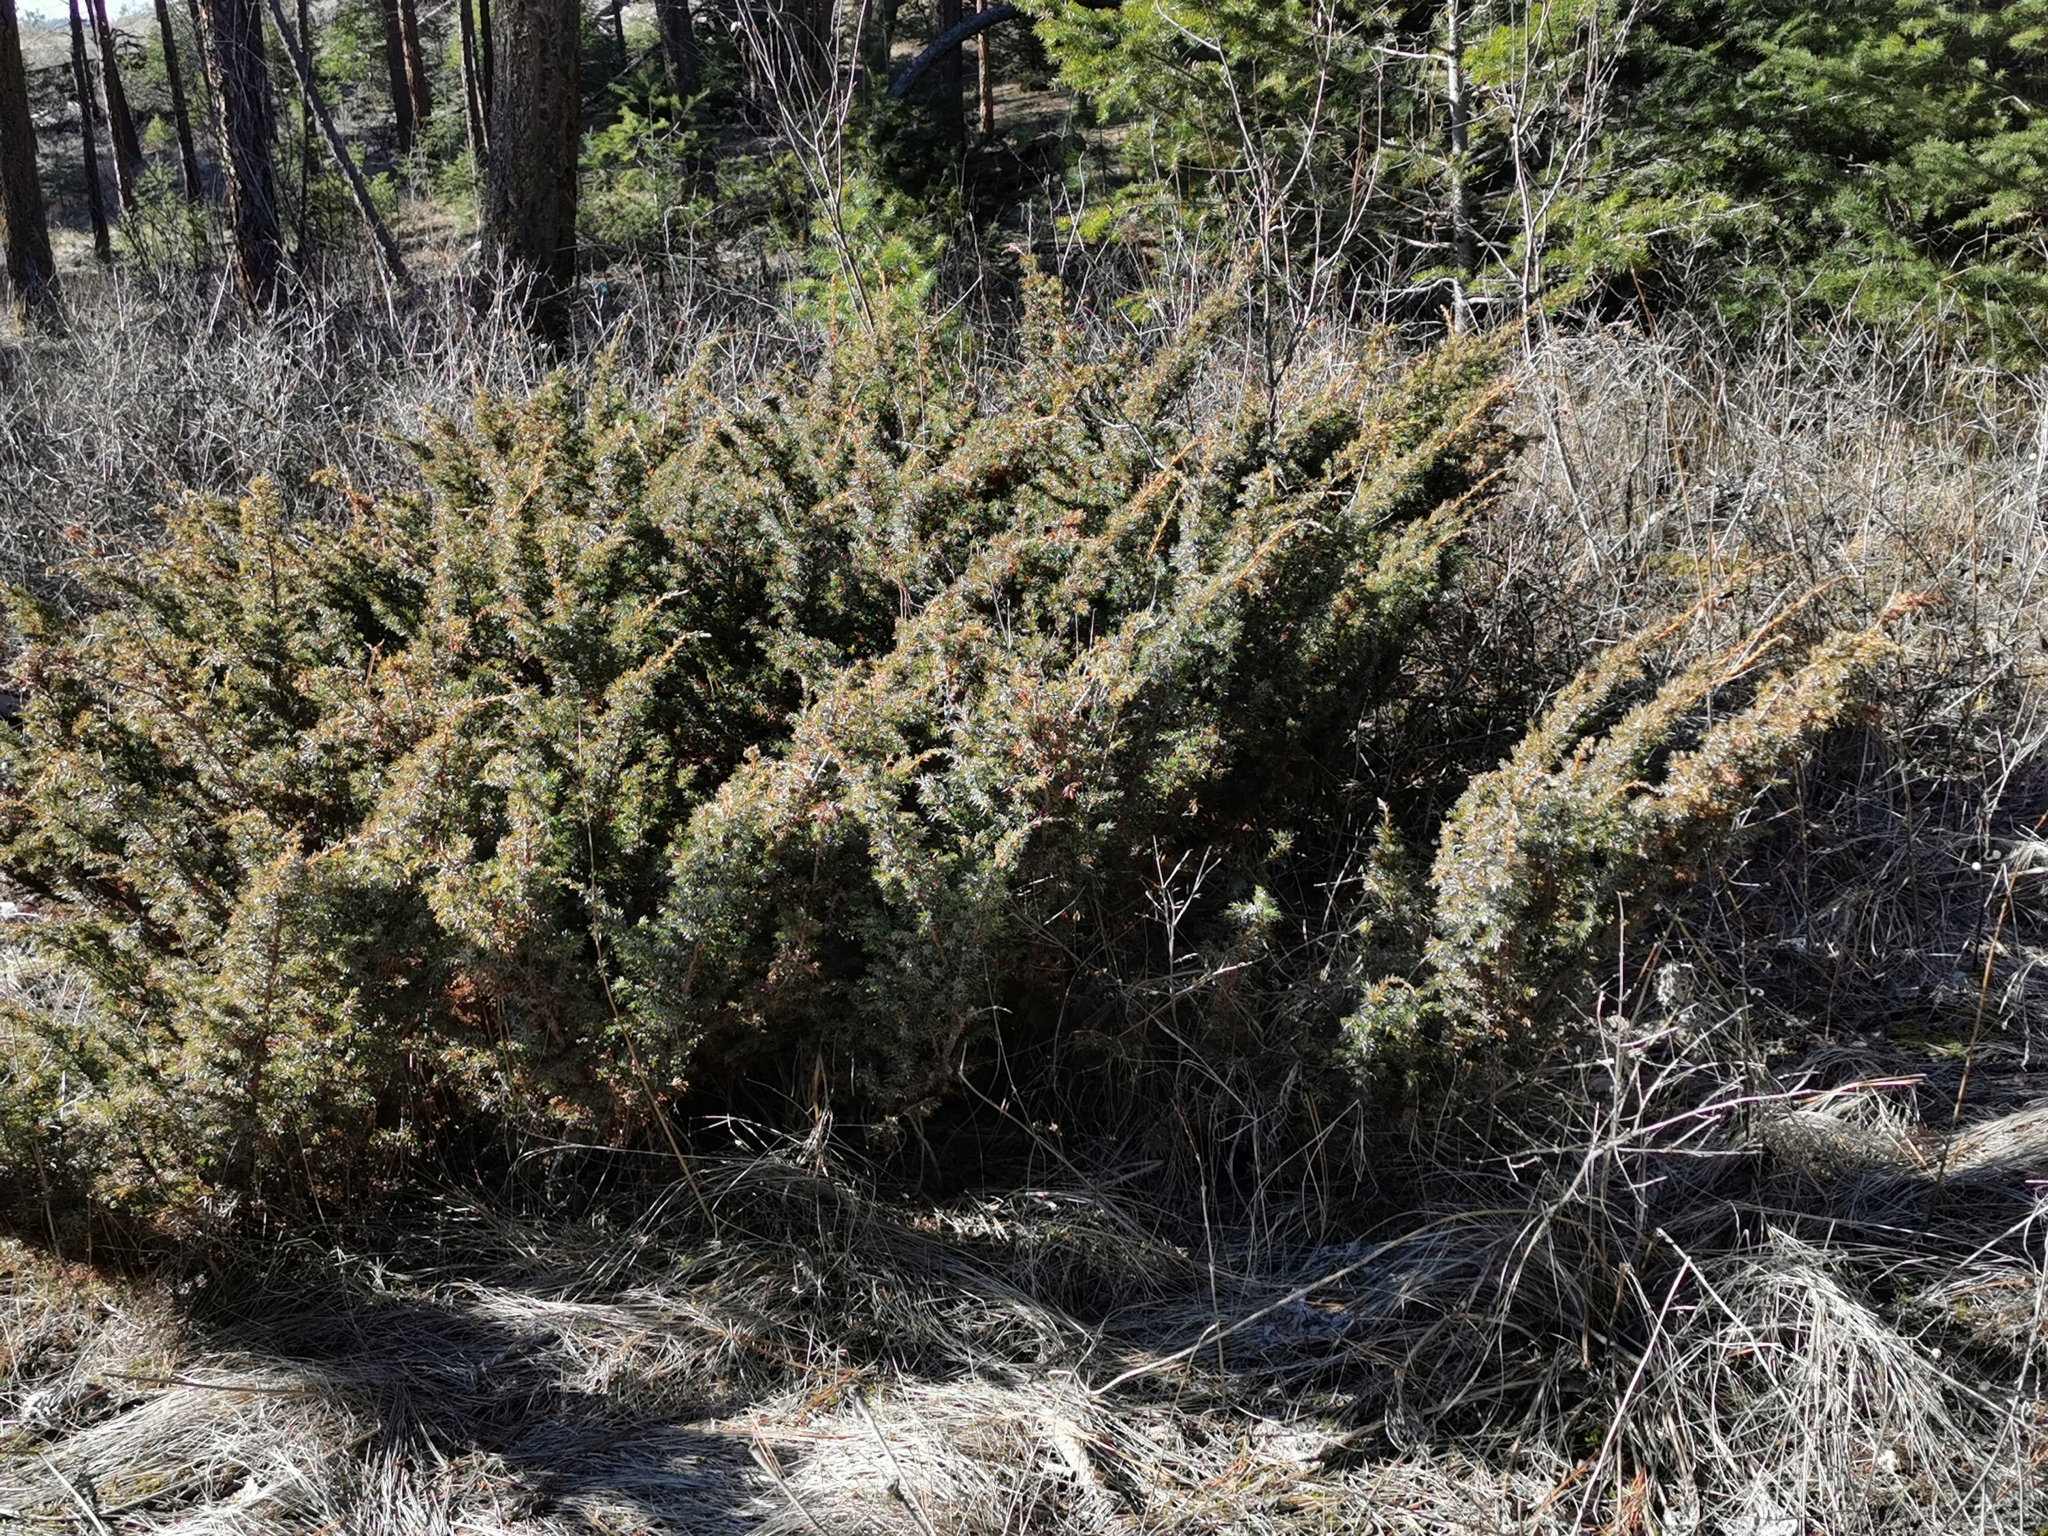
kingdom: Plantae
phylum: Tracheophyta
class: Pinopsida
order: Pinales
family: Cupressaceae
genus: Juniperus
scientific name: Juniperus communis
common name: Common juniper
